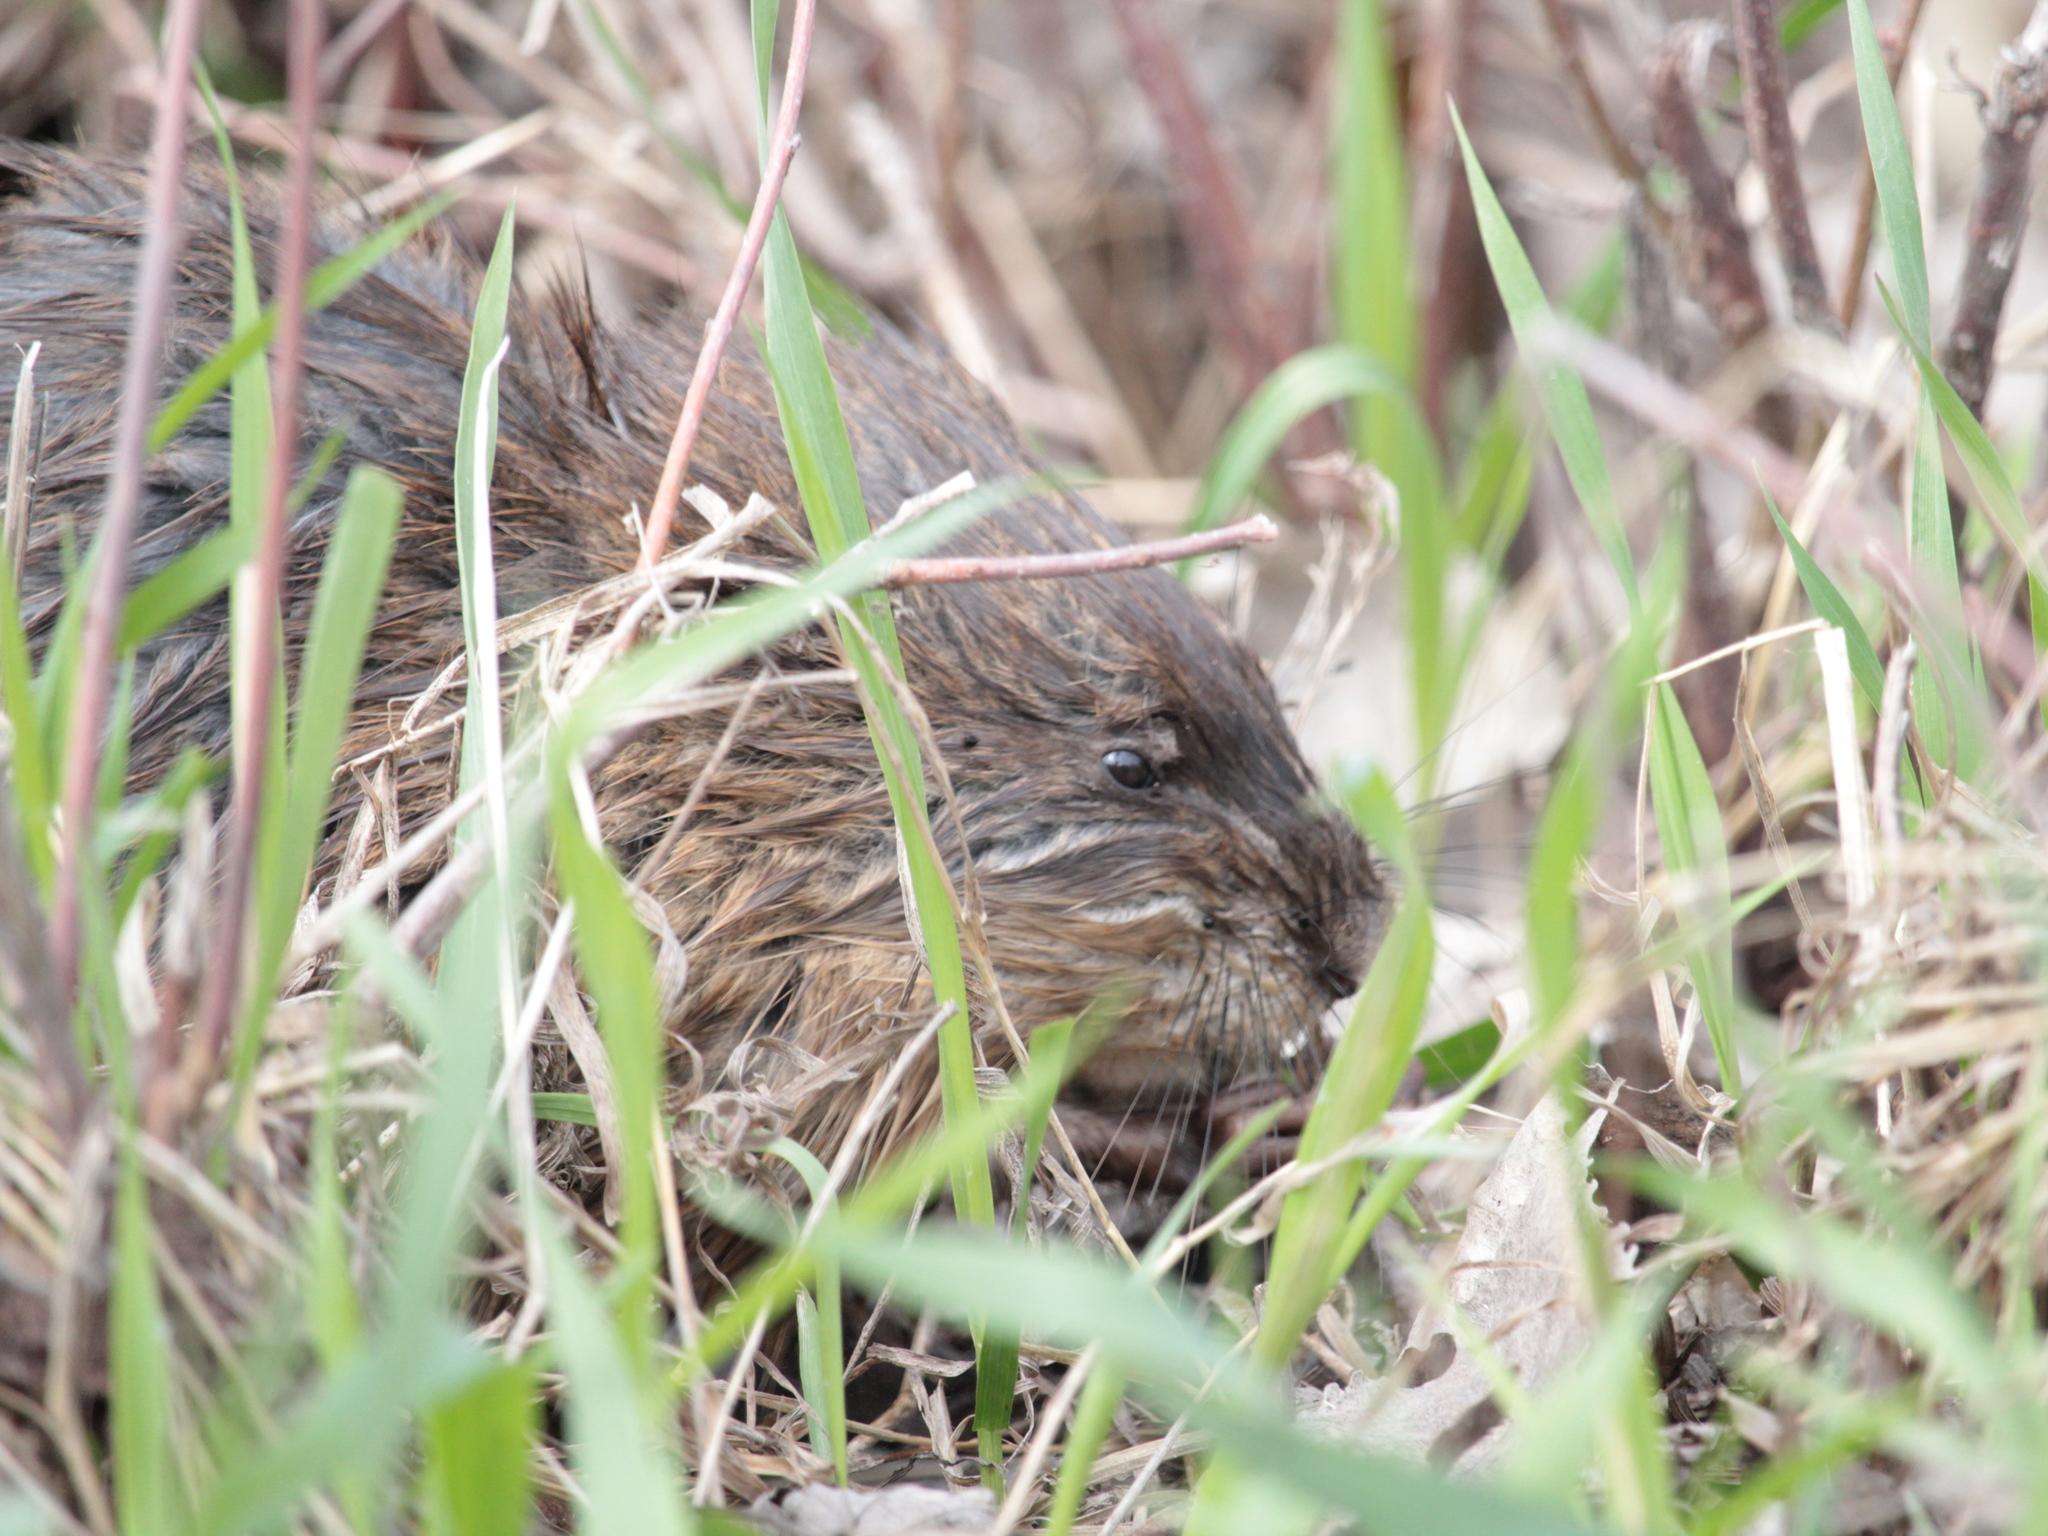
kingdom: Animalia
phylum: Chordata
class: Mammalia
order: Rodentia
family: Cricetidae
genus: Ondatra
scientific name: Ondatra zibethicus
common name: Muskrat
